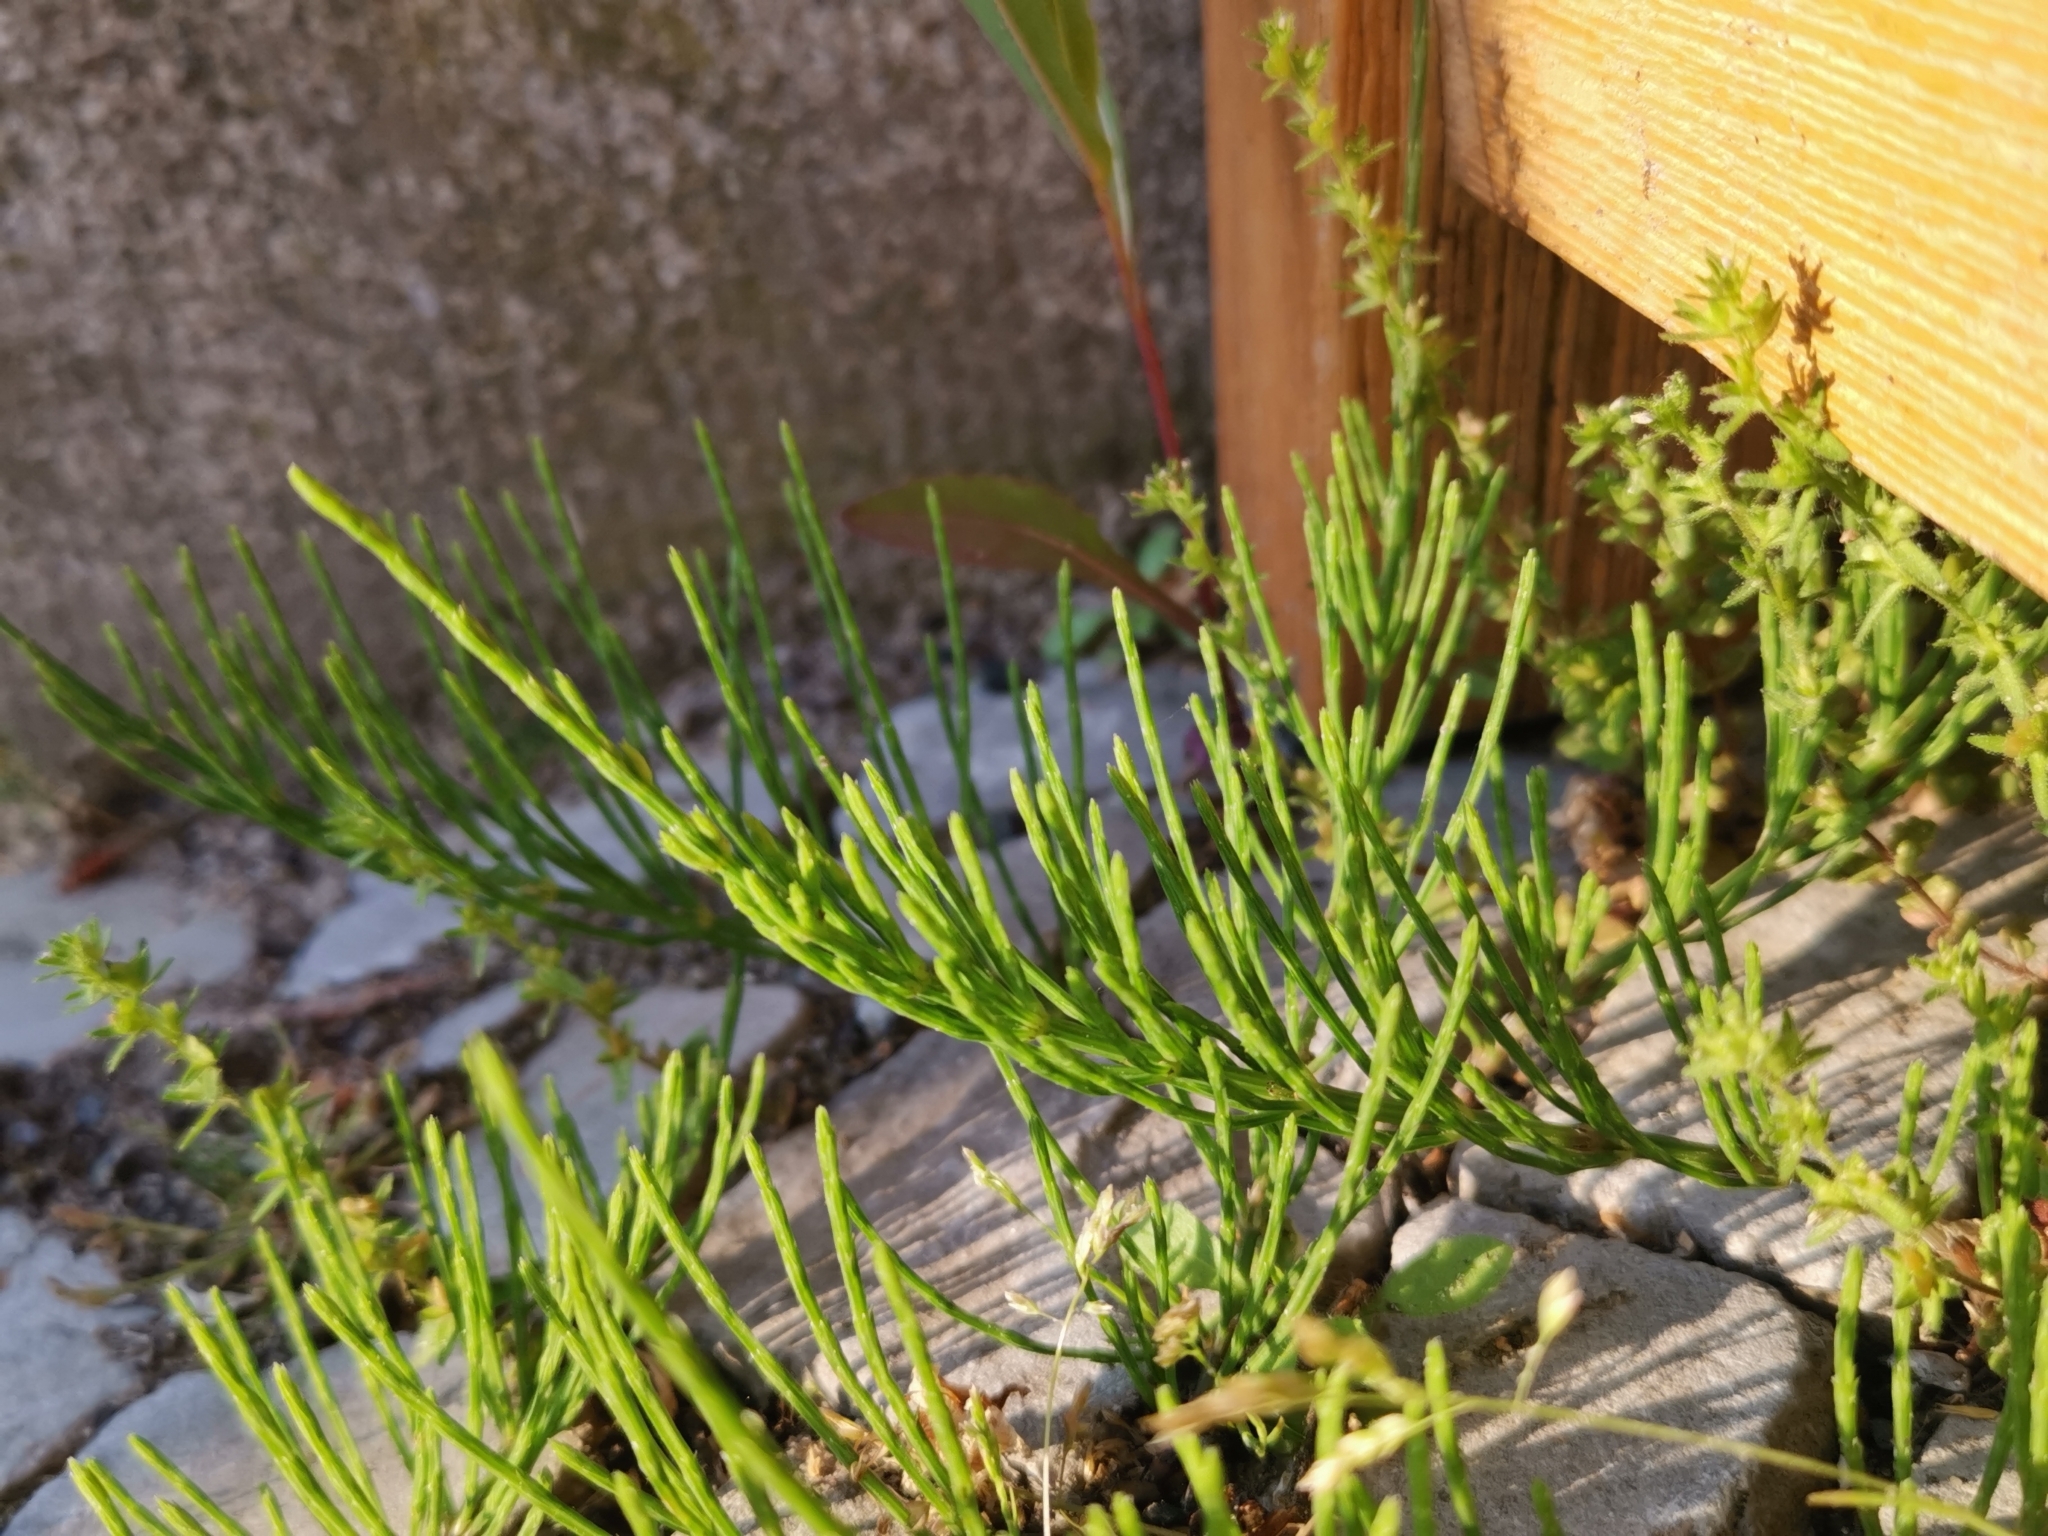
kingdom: Plantae
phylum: Tracheophyta
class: Polypodiopsida
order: Equisetales
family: Equisetaceae
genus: Equisetum
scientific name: Equisetum arvense
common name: Field horsetail
